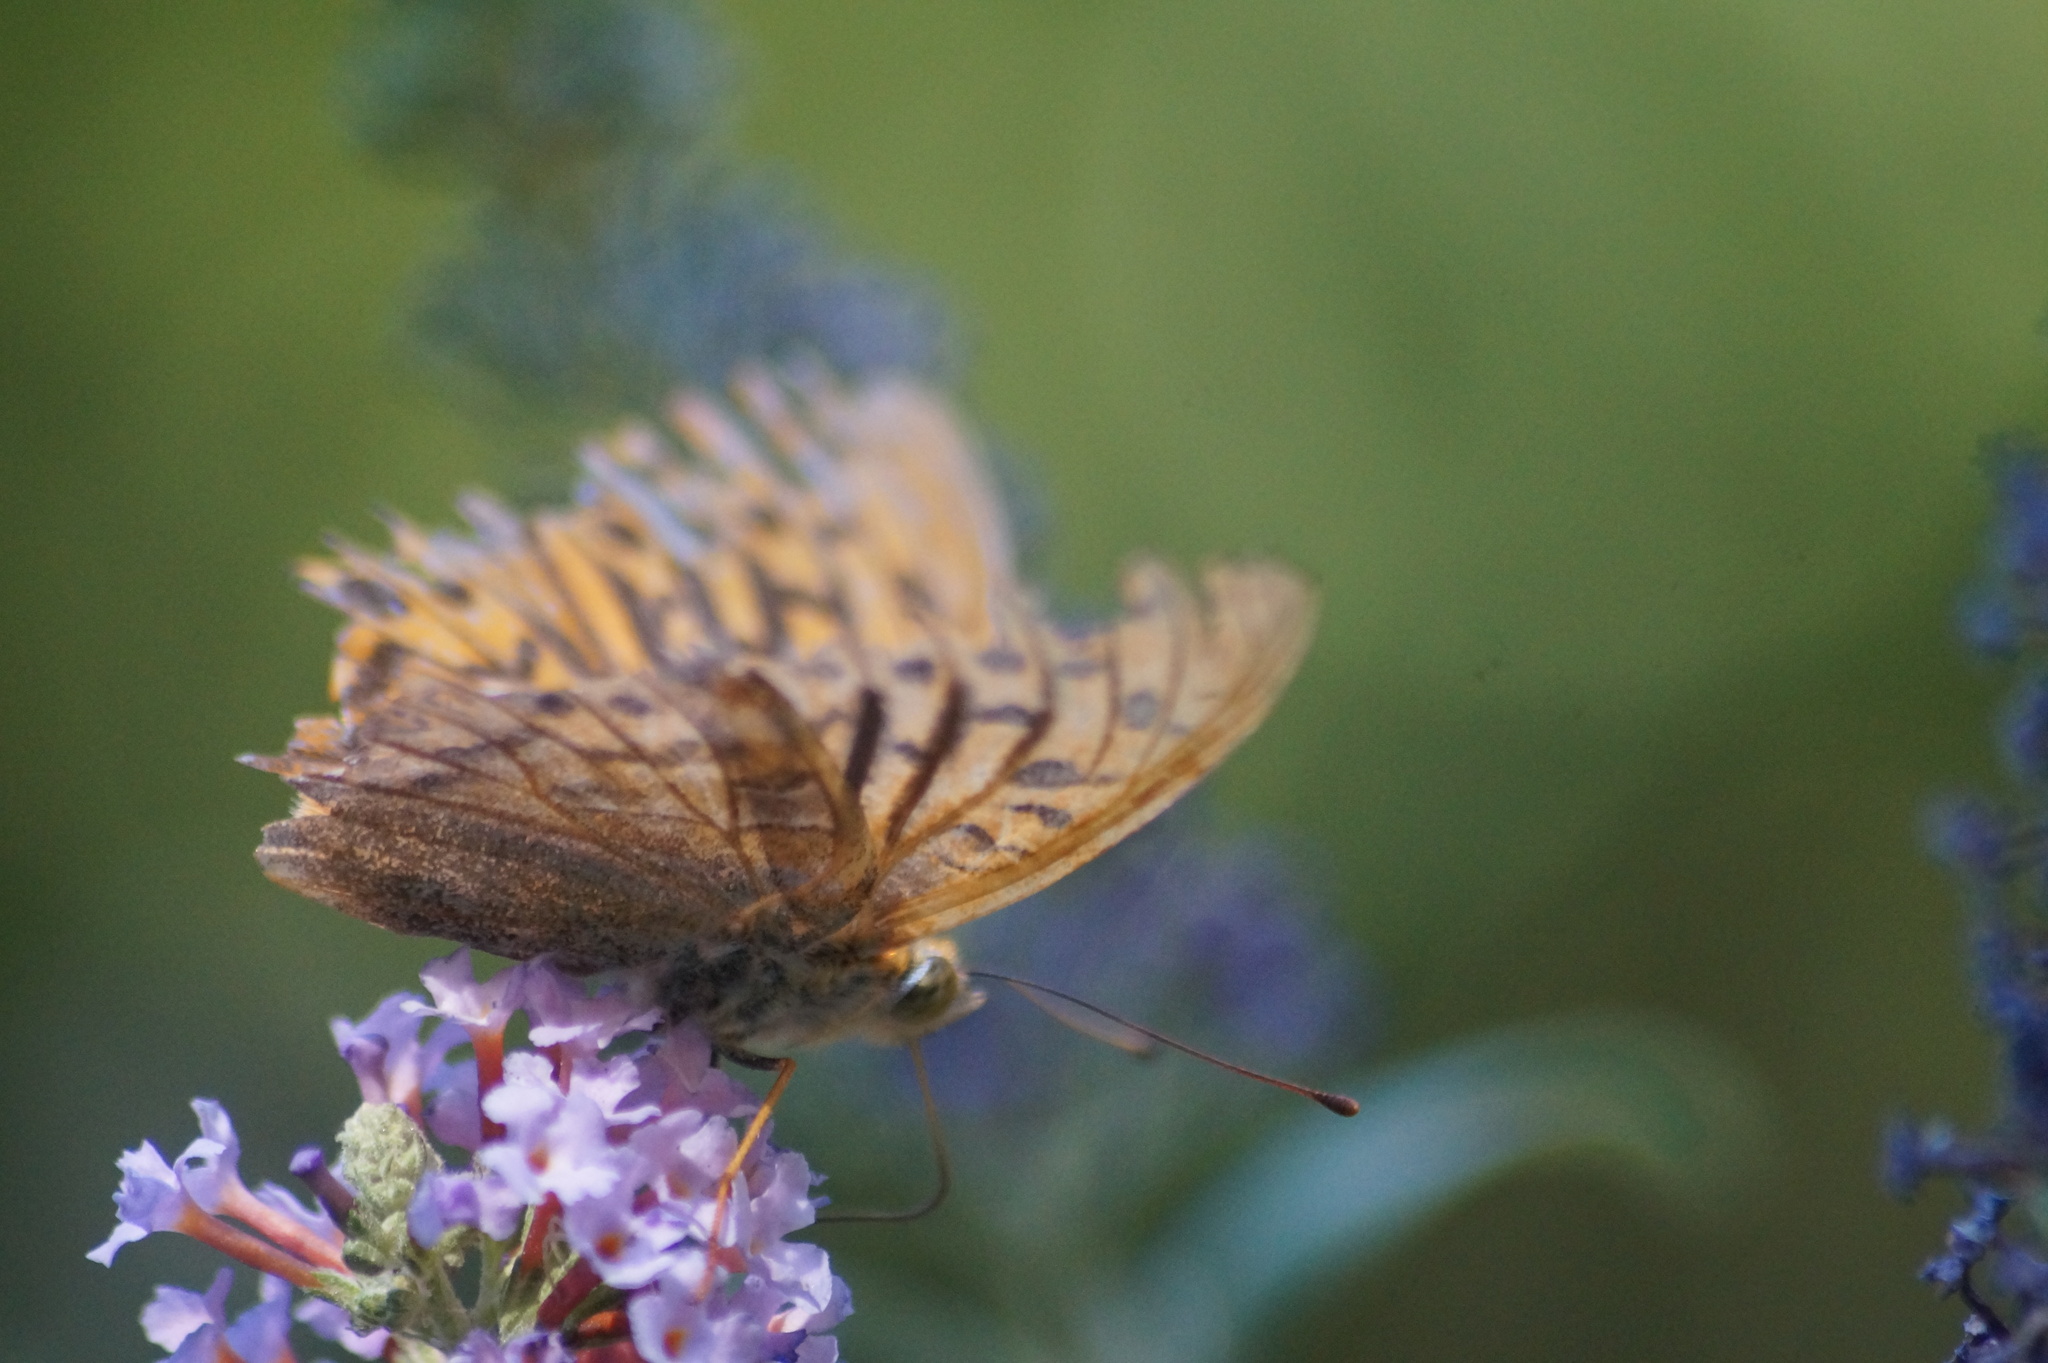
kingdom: Animalia
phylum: Arthropoda
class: Insecta
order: Lepidoptera
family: Nymphalidae
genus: Argynnis
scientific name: Argynnis paphia
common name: Silver-washed fritillary
